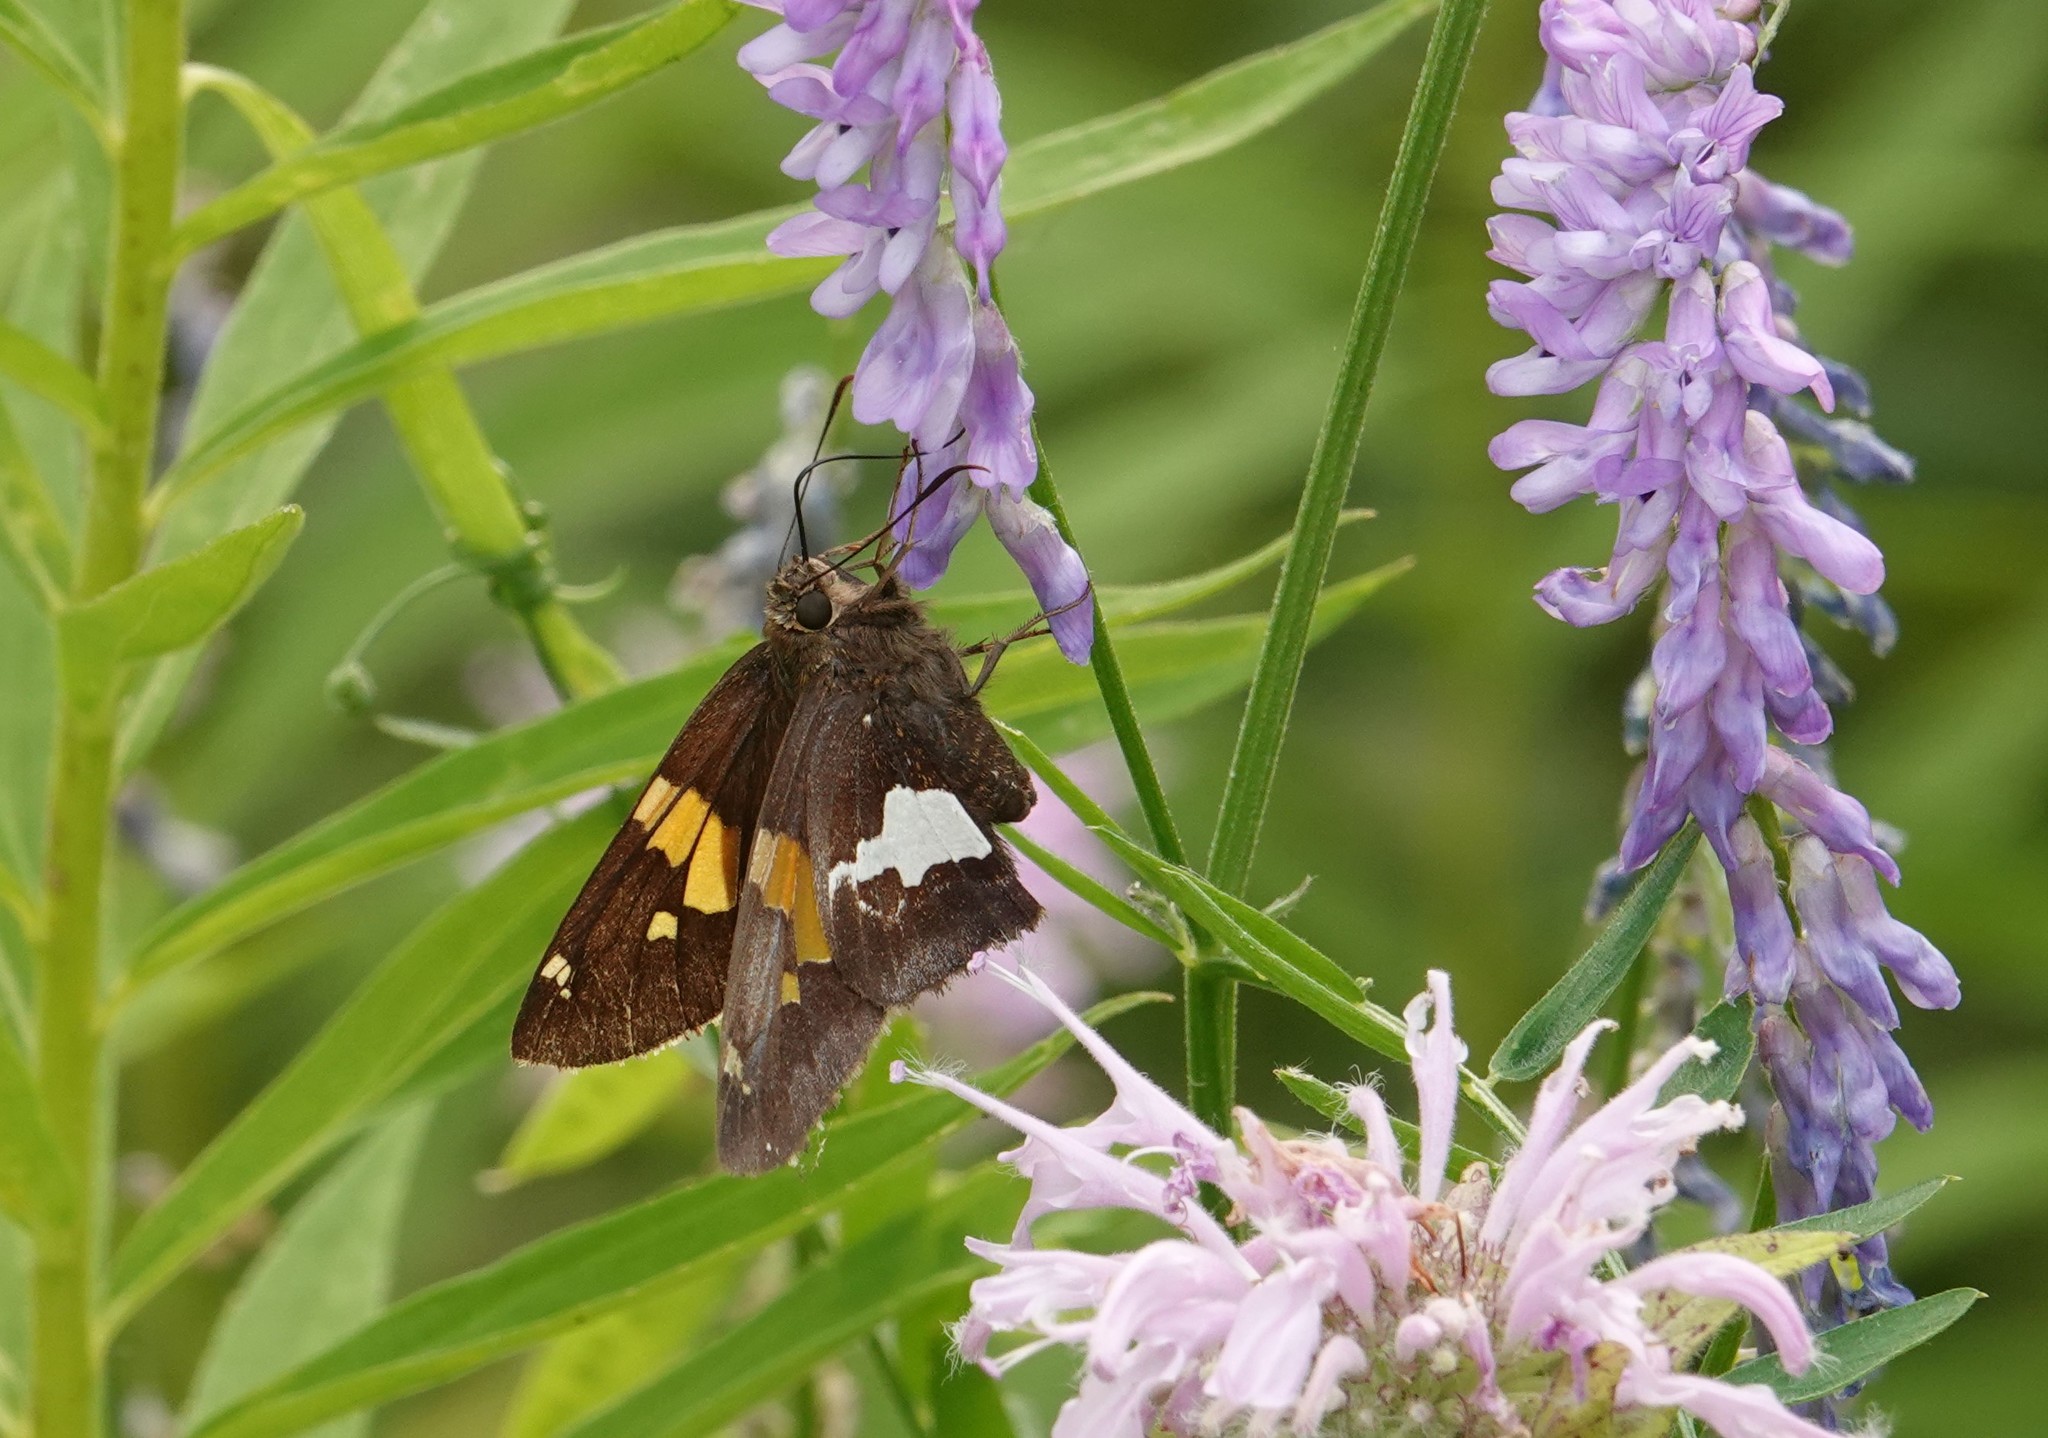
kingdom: Animalia
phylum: Arthropoda
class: Insecta
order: Lepidoptera
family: Hesperiidae
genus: Epargyreus
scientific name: Epargyreus clarus
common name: Silver-spotted skipper
